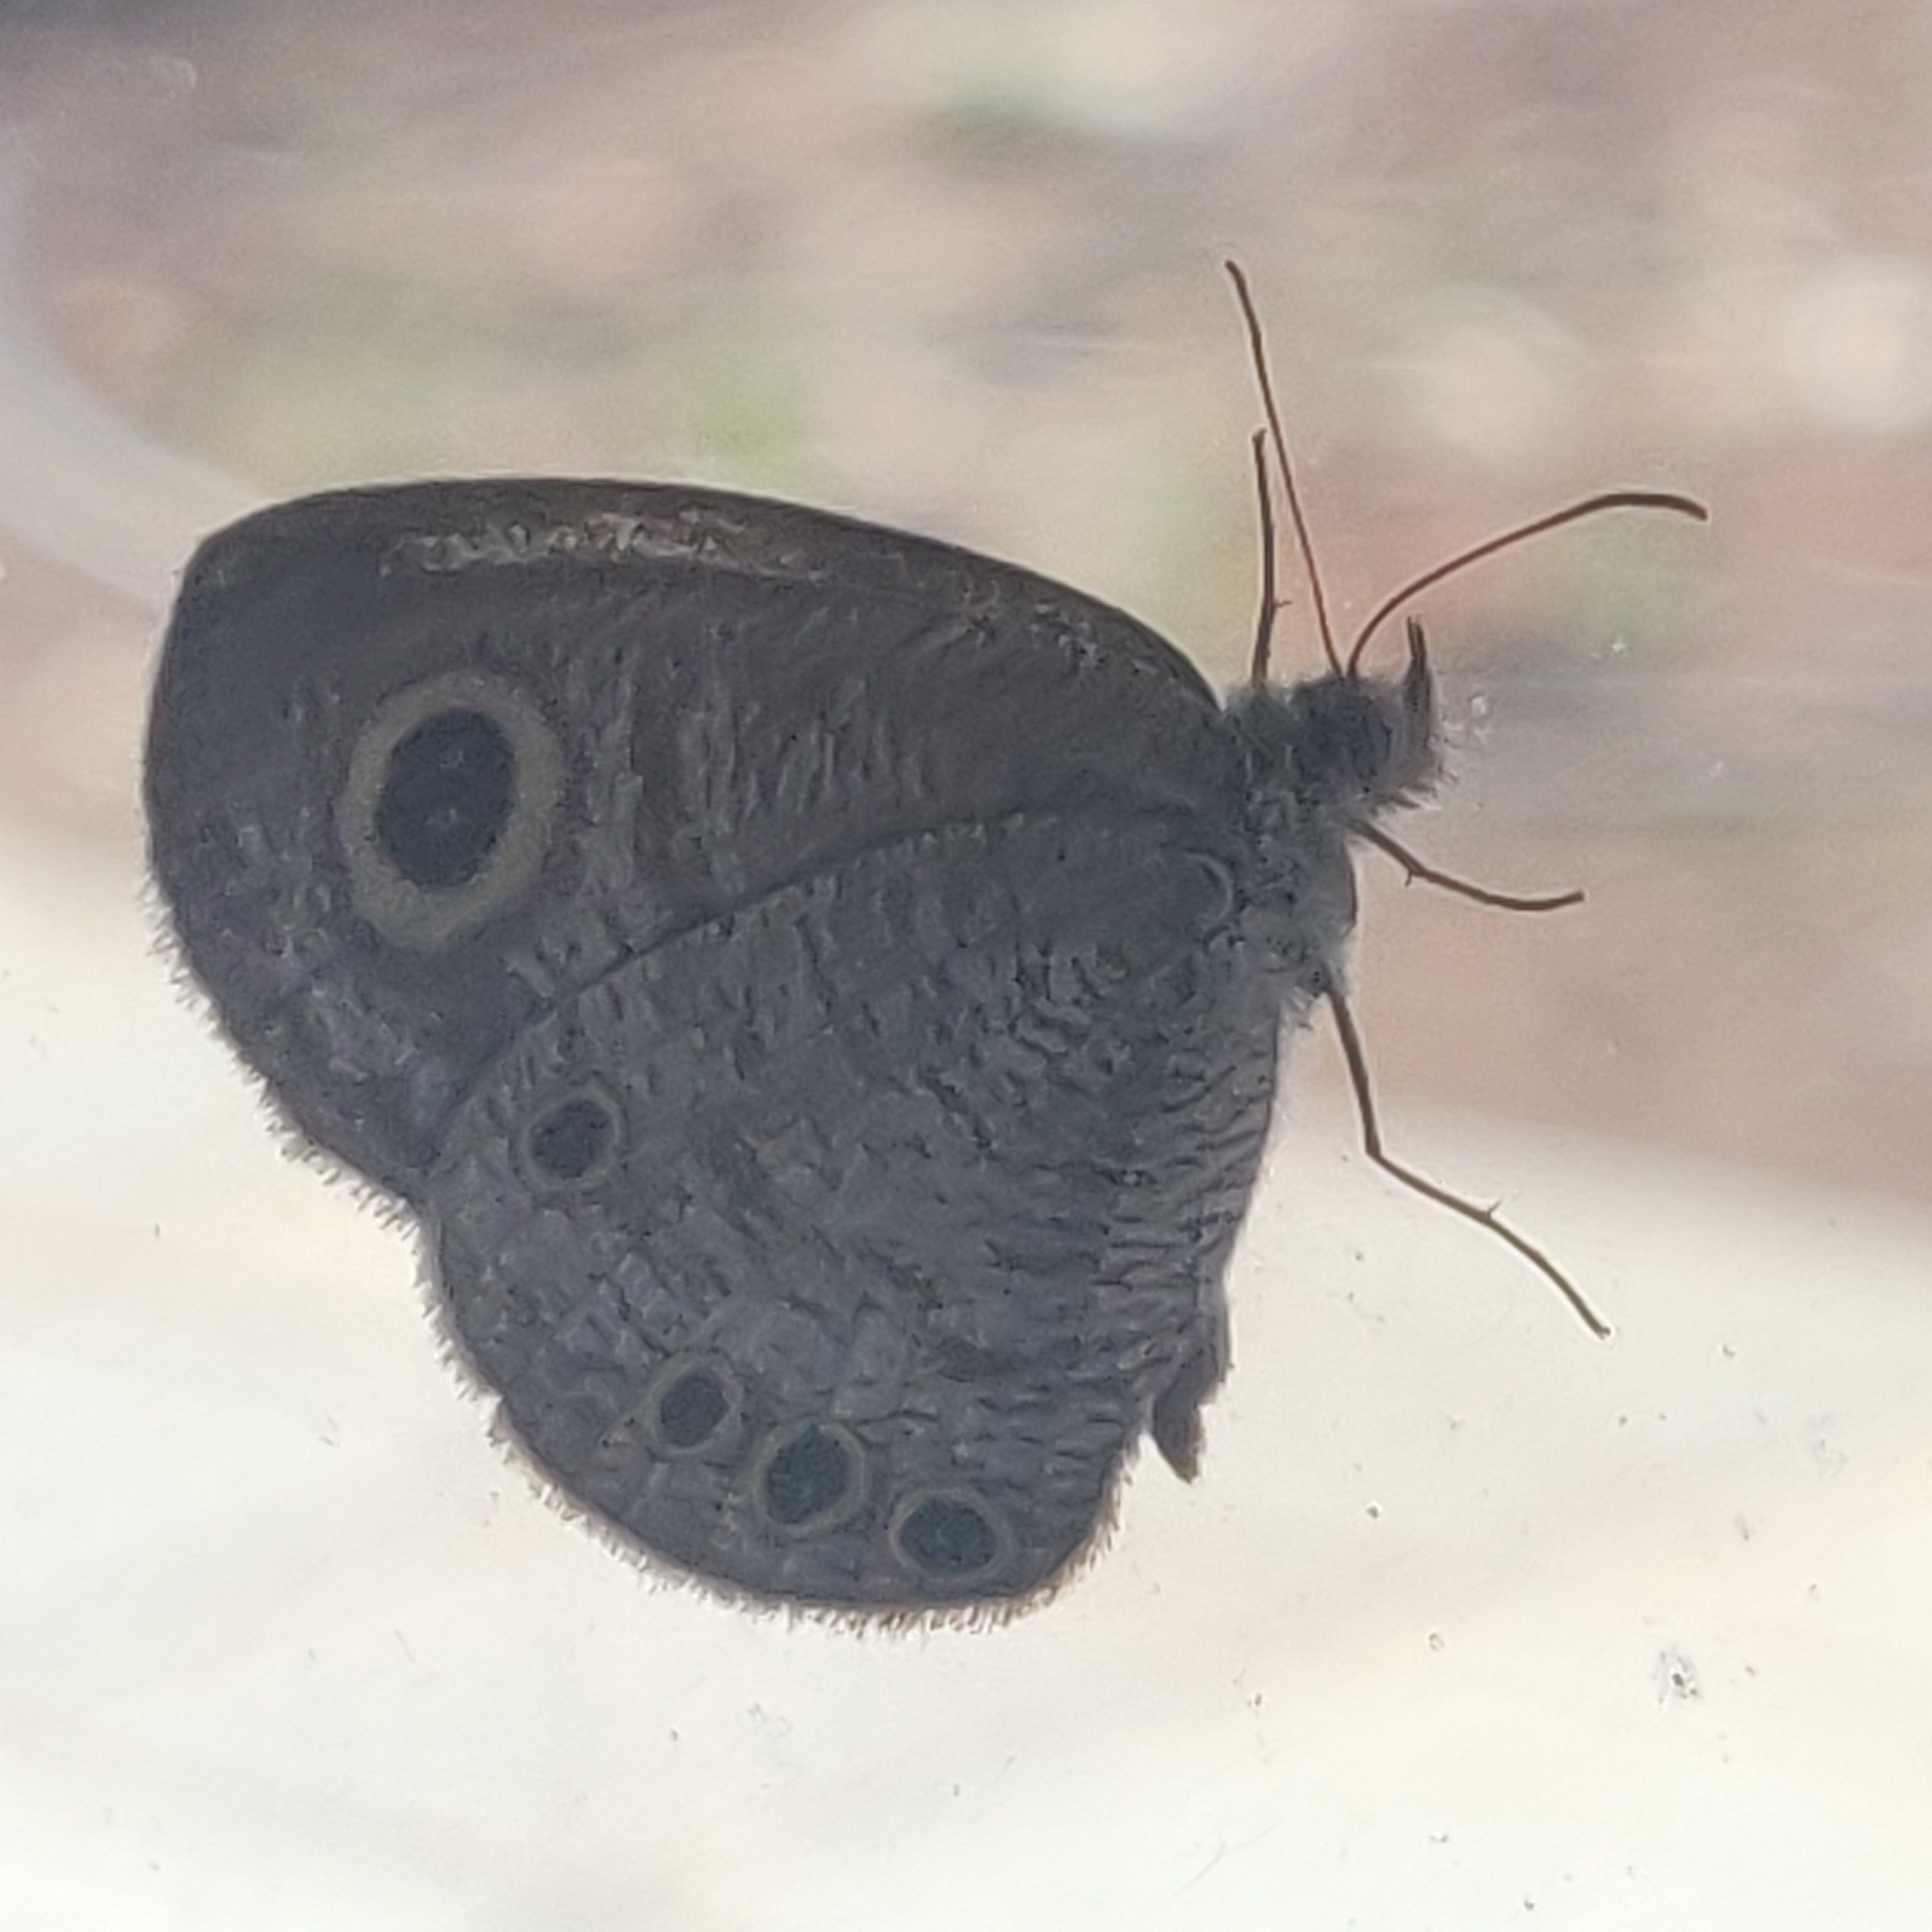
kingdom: Animalia
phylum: Arthropoda
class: Insecta
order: Lepidoptera
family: Nymphalidae
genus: Ypthima
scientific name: Ypthima huebneri
